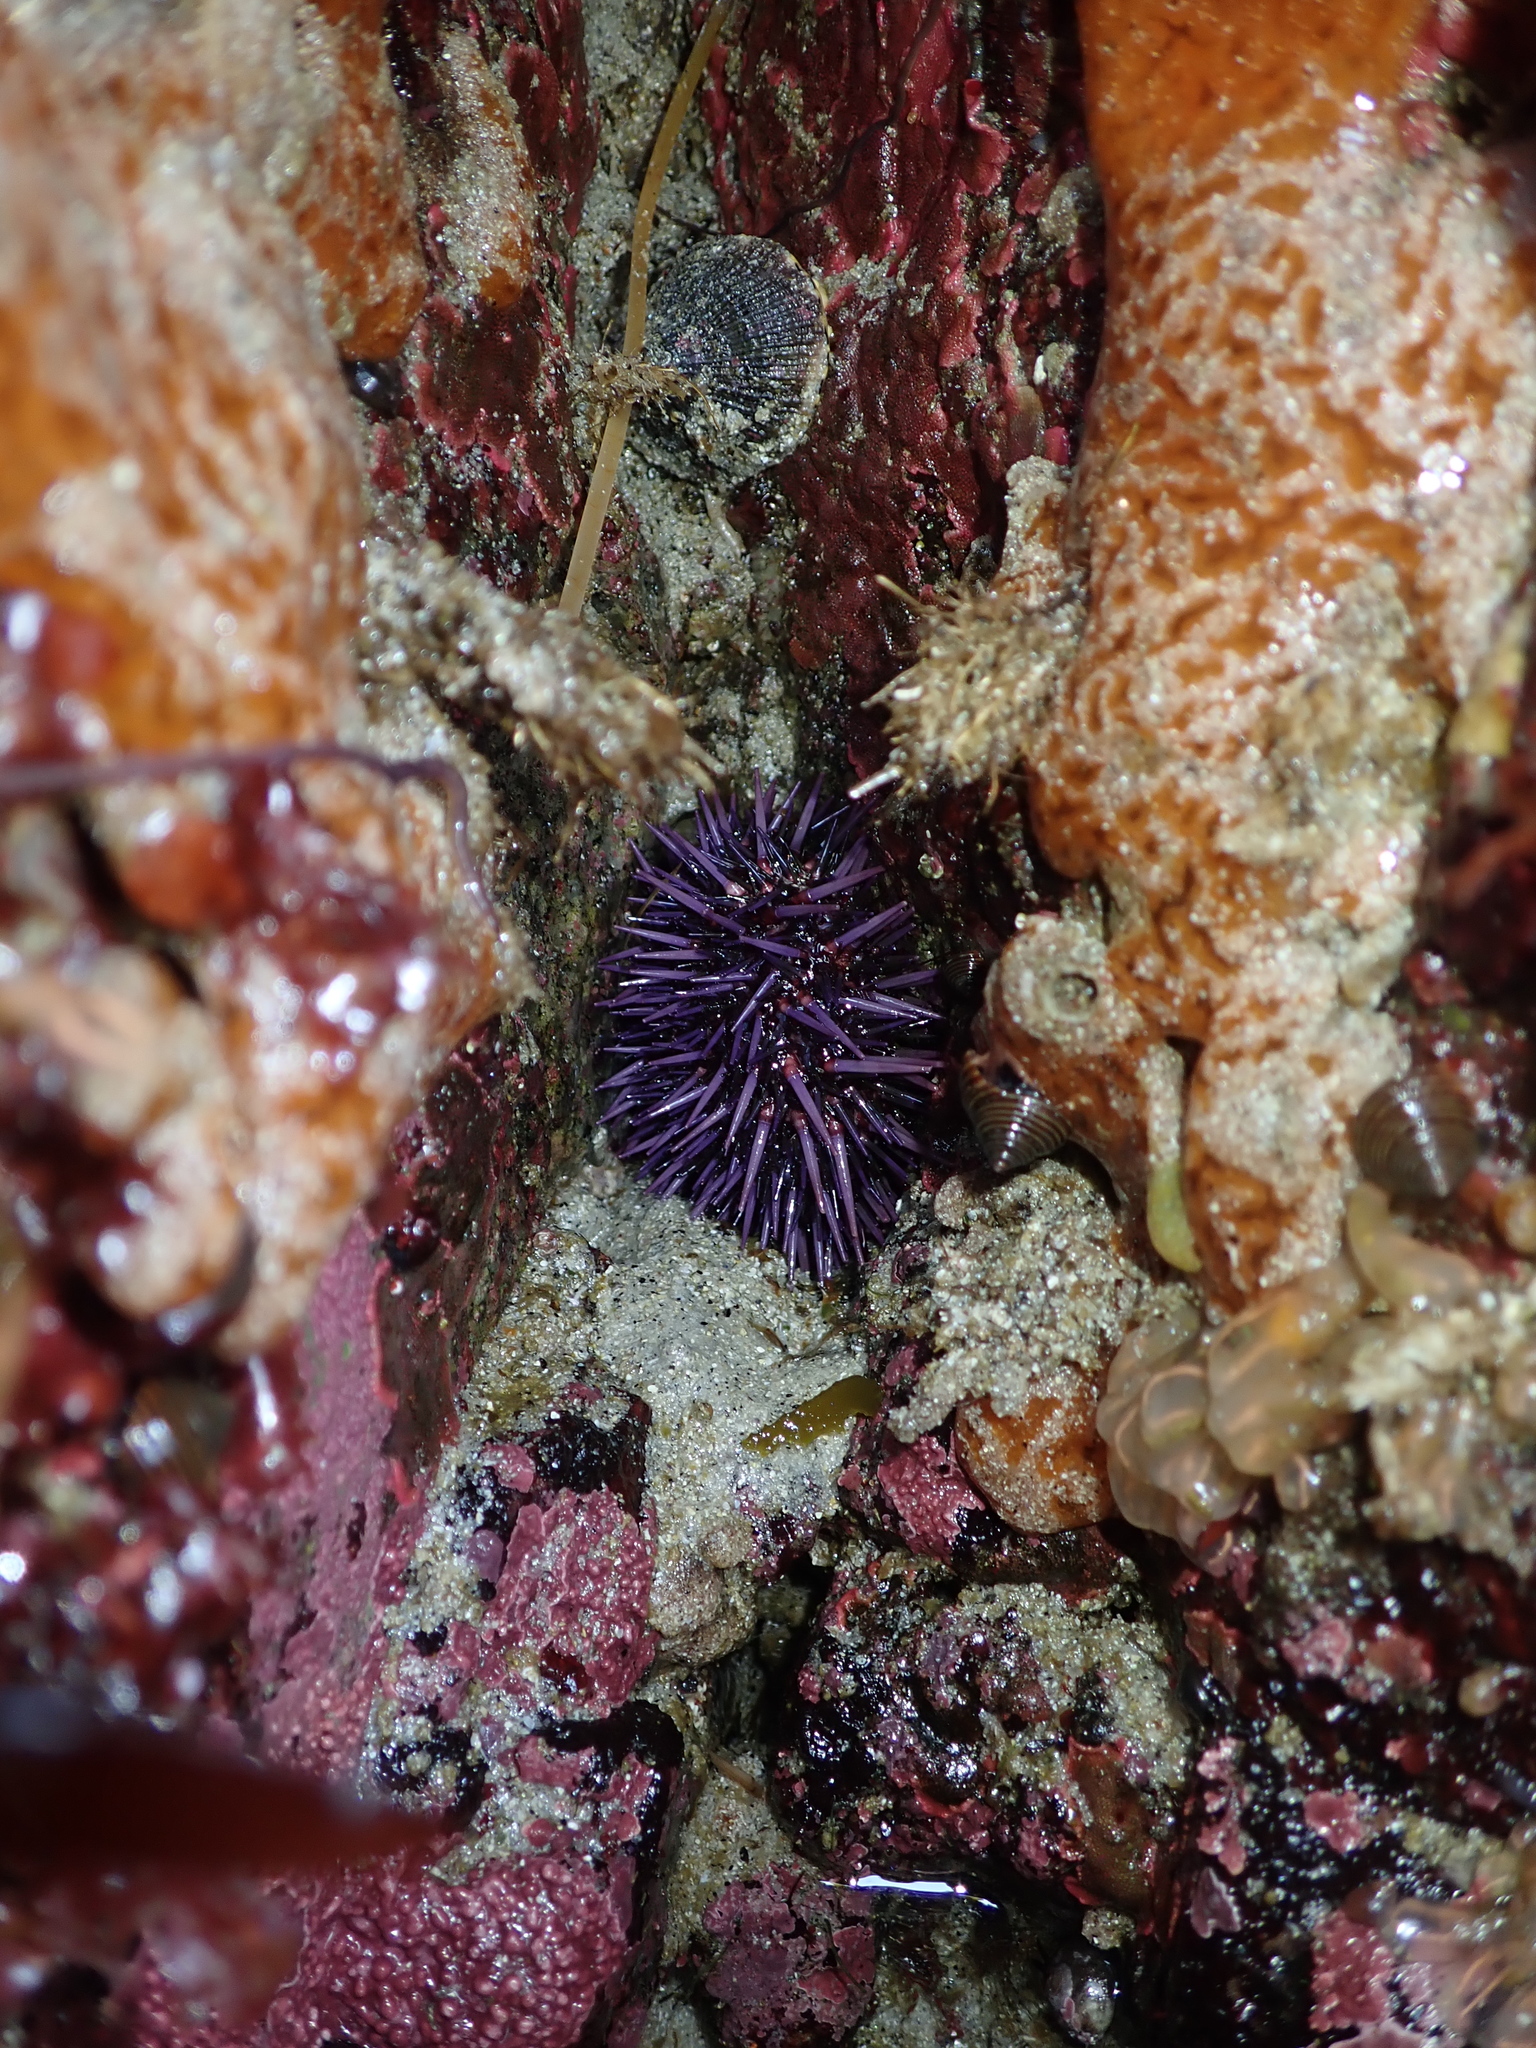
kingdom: Animalia
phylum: Echinodermata
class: Echinoidea
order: Camarodonta
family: Strongylocentrotidae
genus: Strongylocentrotus
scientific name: Strongylocentrotus purpuratus
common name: Purple sea urchin
